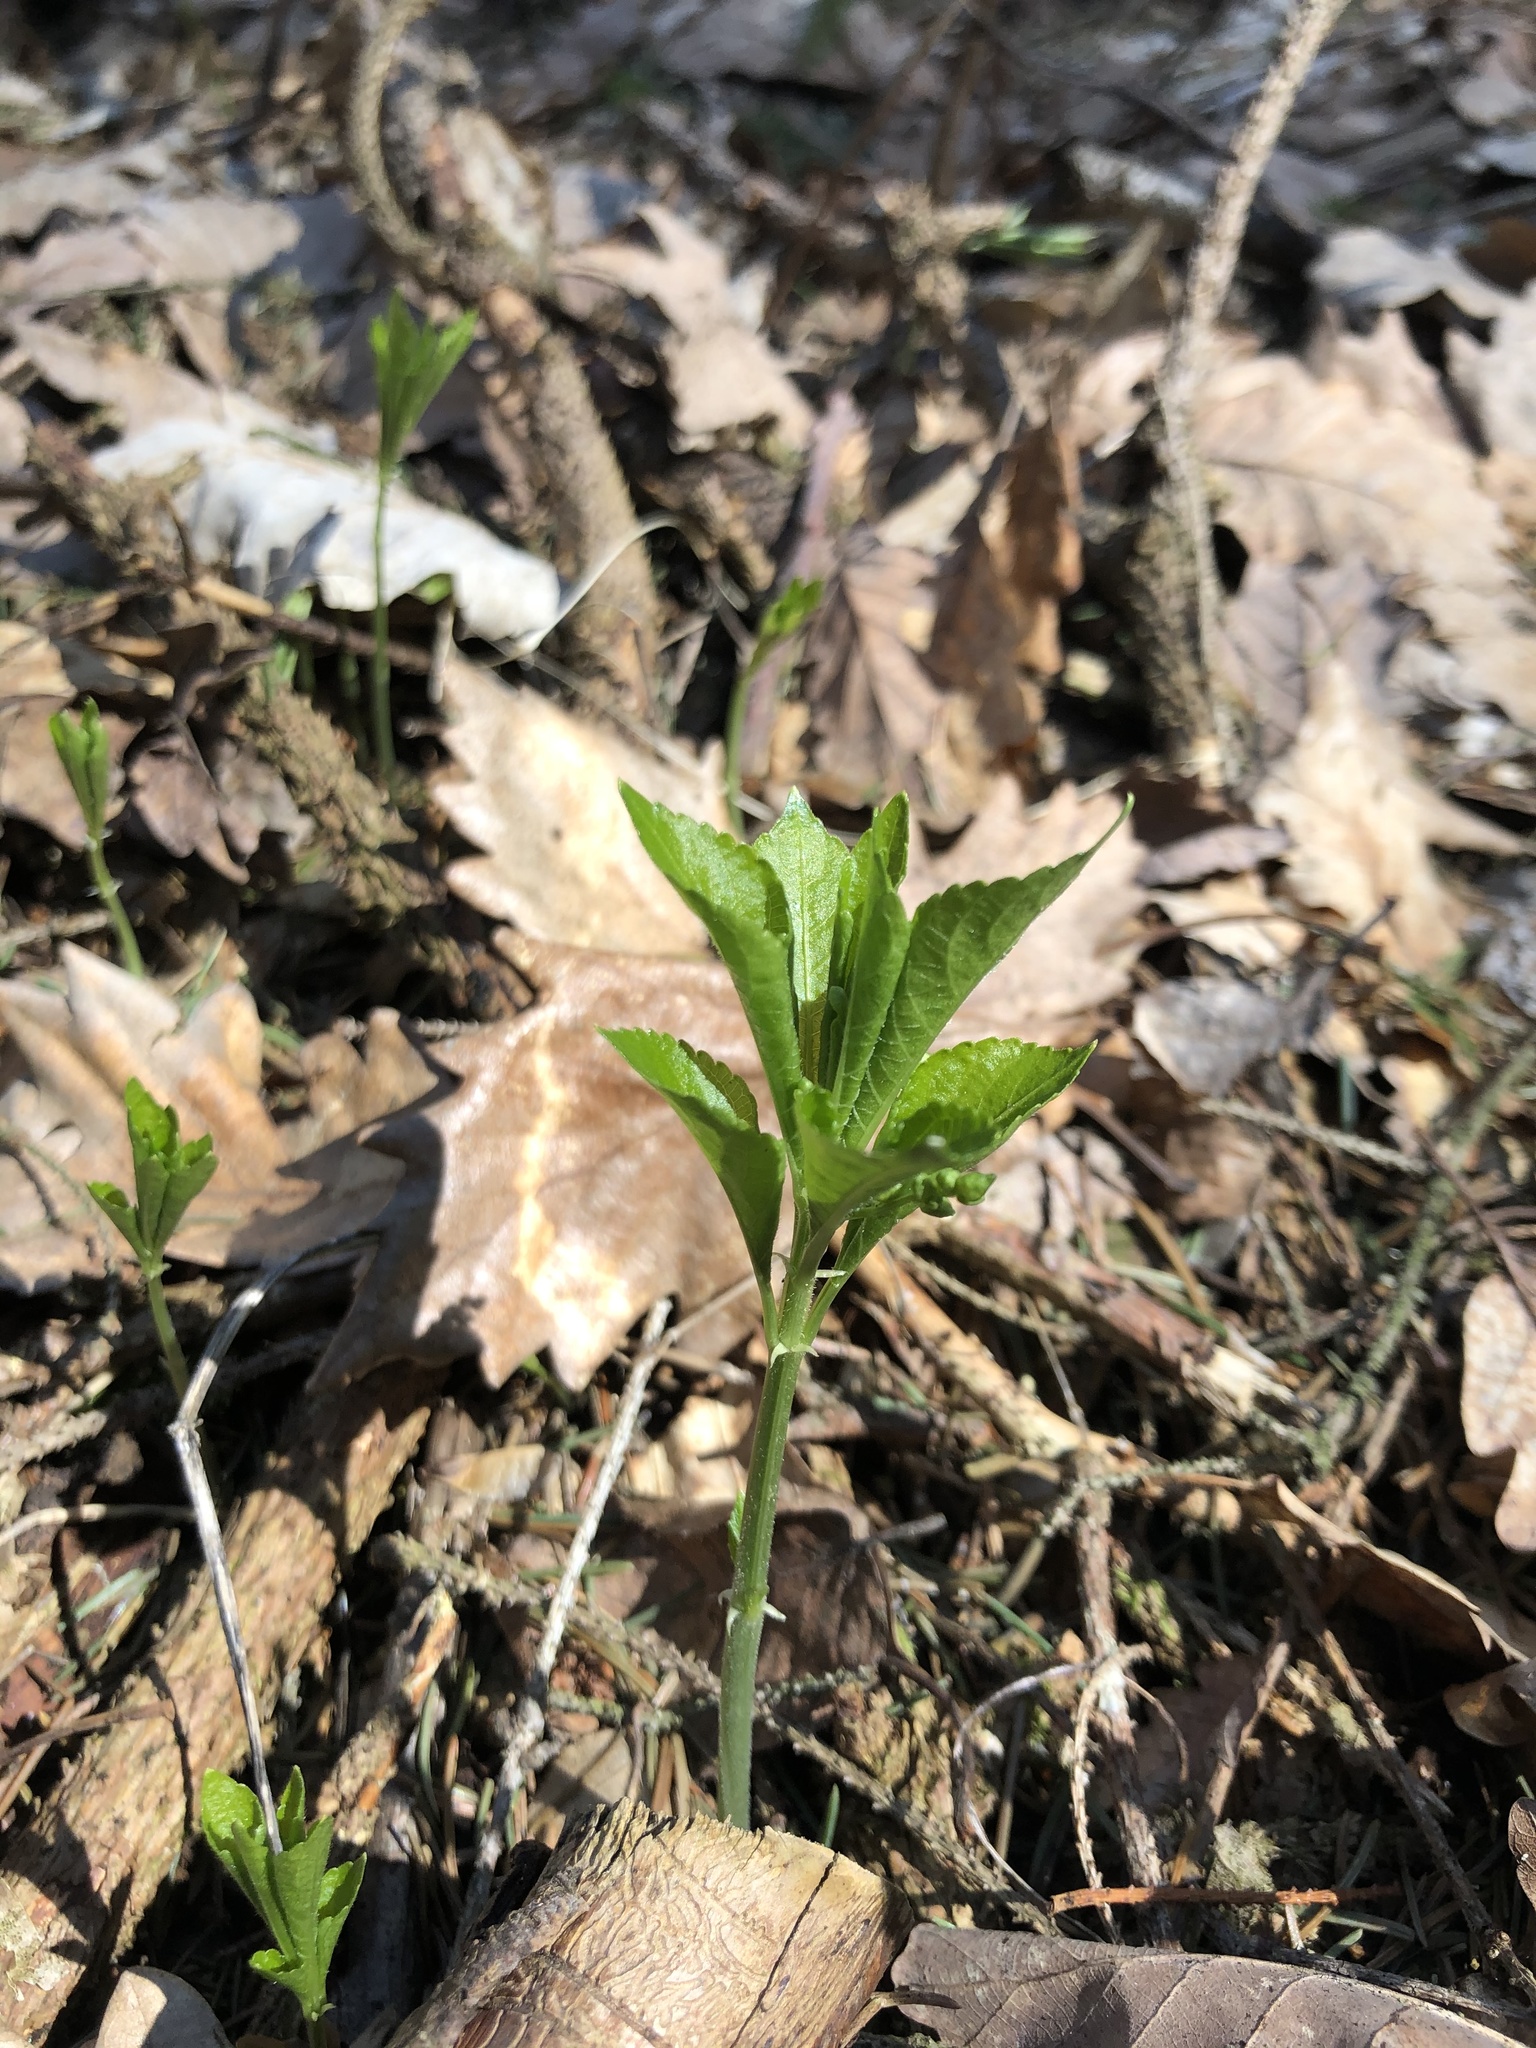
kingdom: Plantae
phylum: Tracheophyta
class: Magnoliopsida
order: Malpighiales
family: Euphorbiaceae
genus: Mercurialis
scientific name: Mercurialis perennis
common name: Dog mercury
